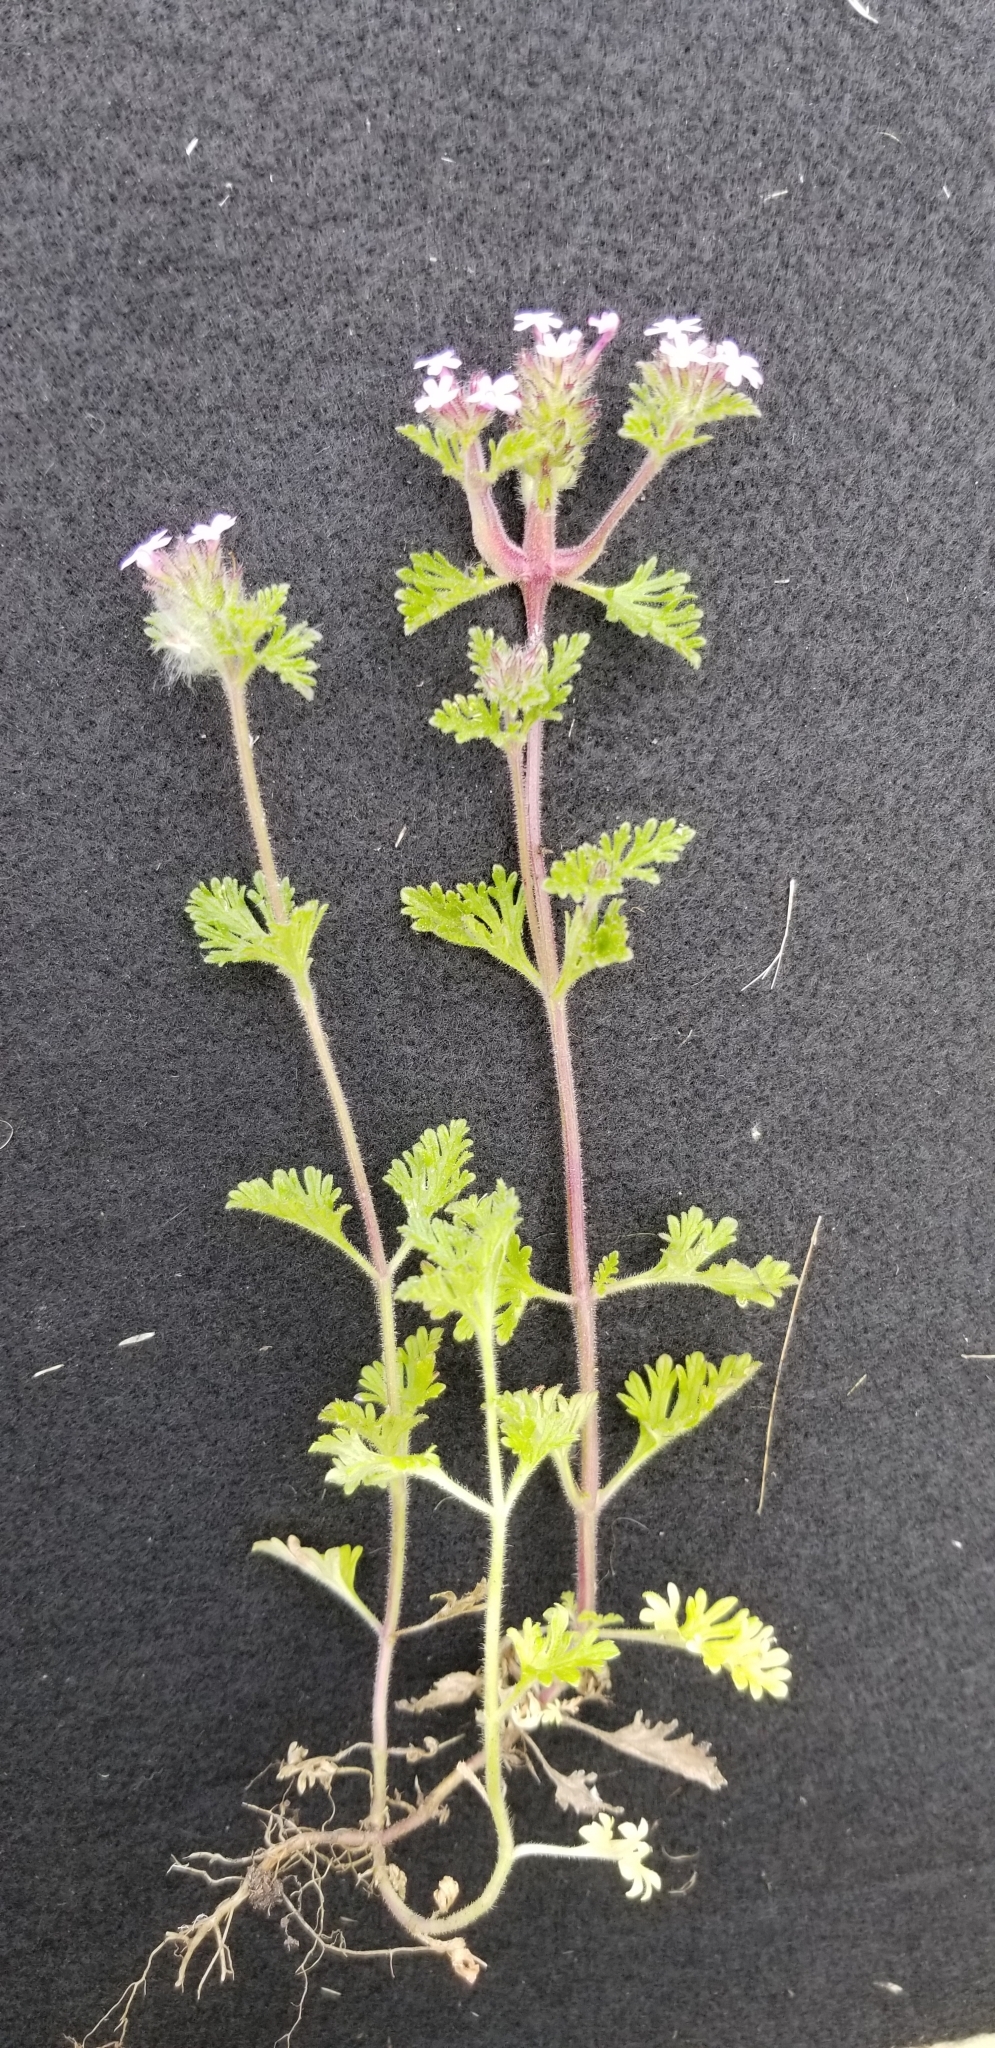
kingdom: Plantae
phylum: Tracheophyta
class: Magnoliopsida
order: Lamiales
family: Verbenaceae
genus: Verbena
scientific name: Verbena pumila
